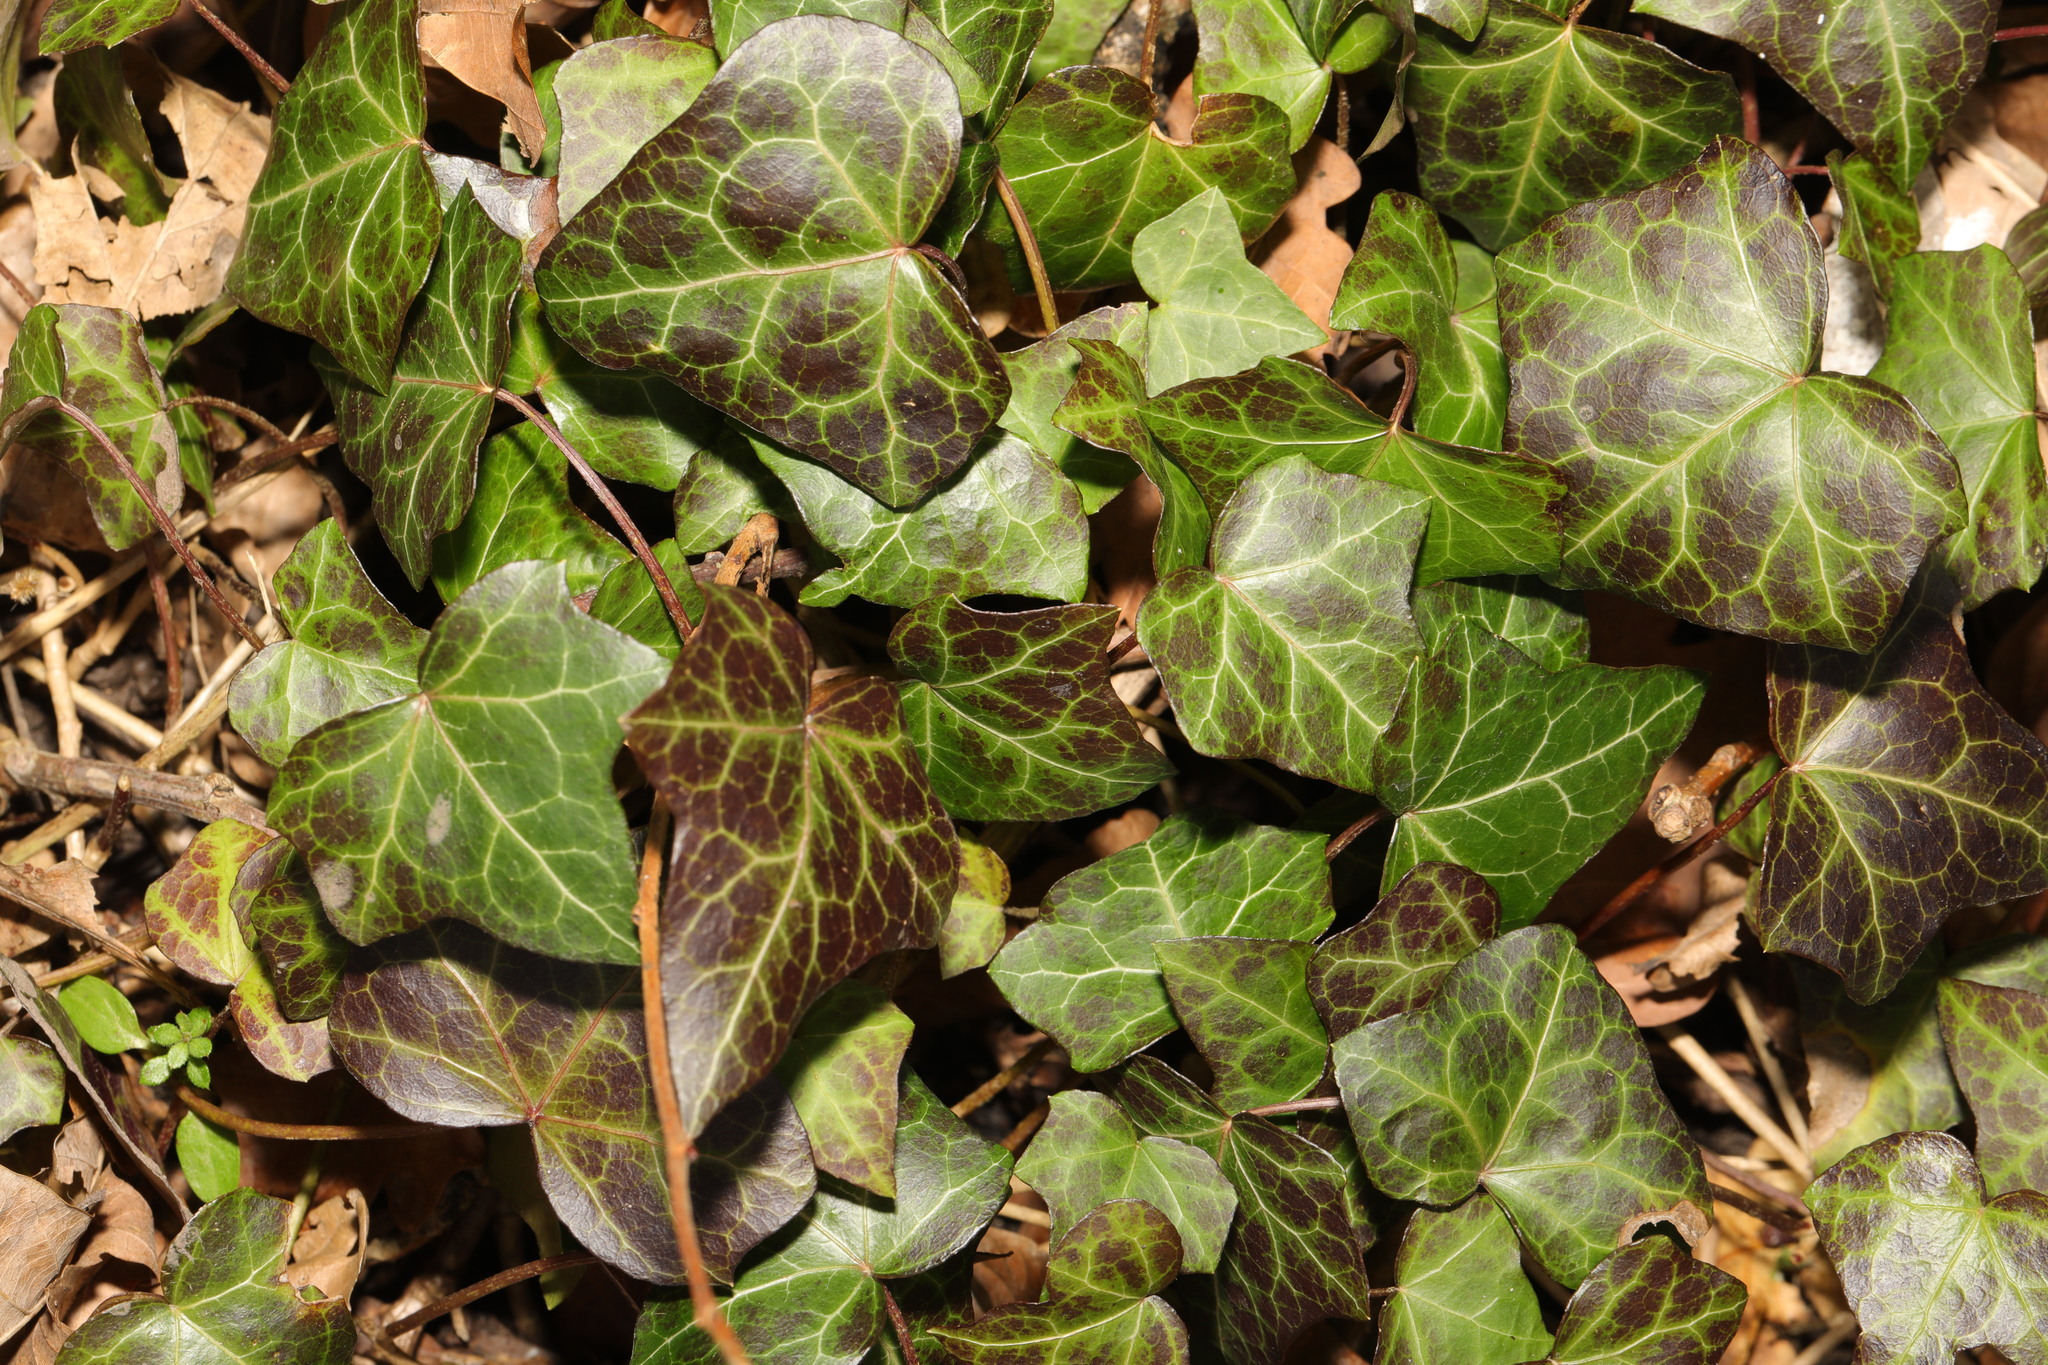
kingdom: Plantae
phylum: Tracheophyta
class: Magnoliopsida
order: Apiales
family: Araliaceae
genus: Hedera
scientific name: Hedera helix
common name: Ivy
